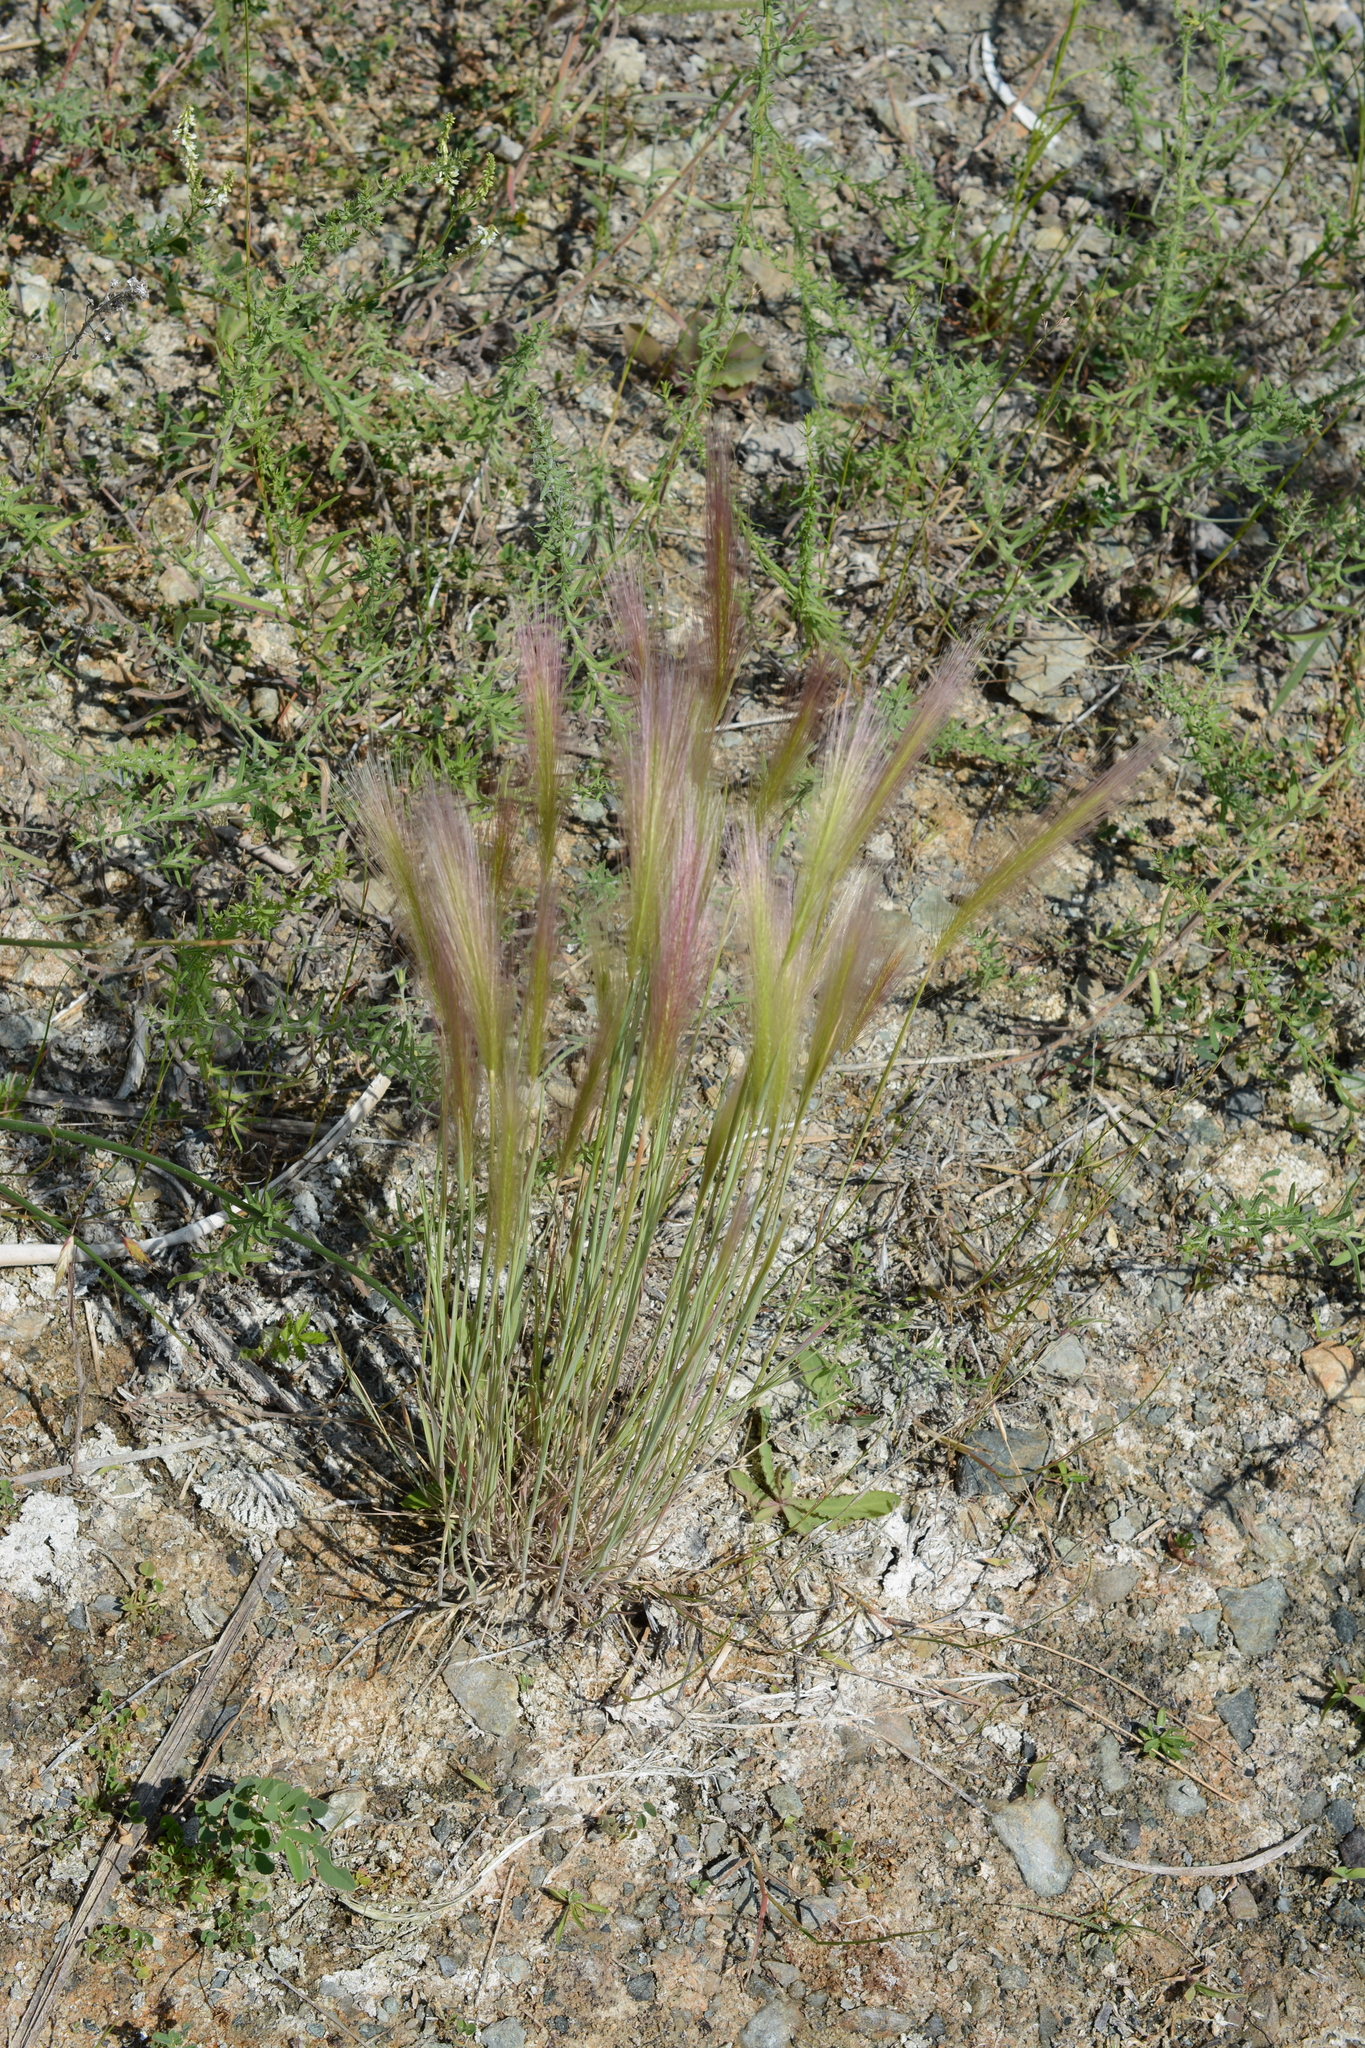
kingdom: Plantae
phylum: Tracheophyta
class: Liliopsida
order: Poales
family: Poaceae
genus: Hordeum
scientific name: Hordeum jubatum
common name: Foxtail barley
